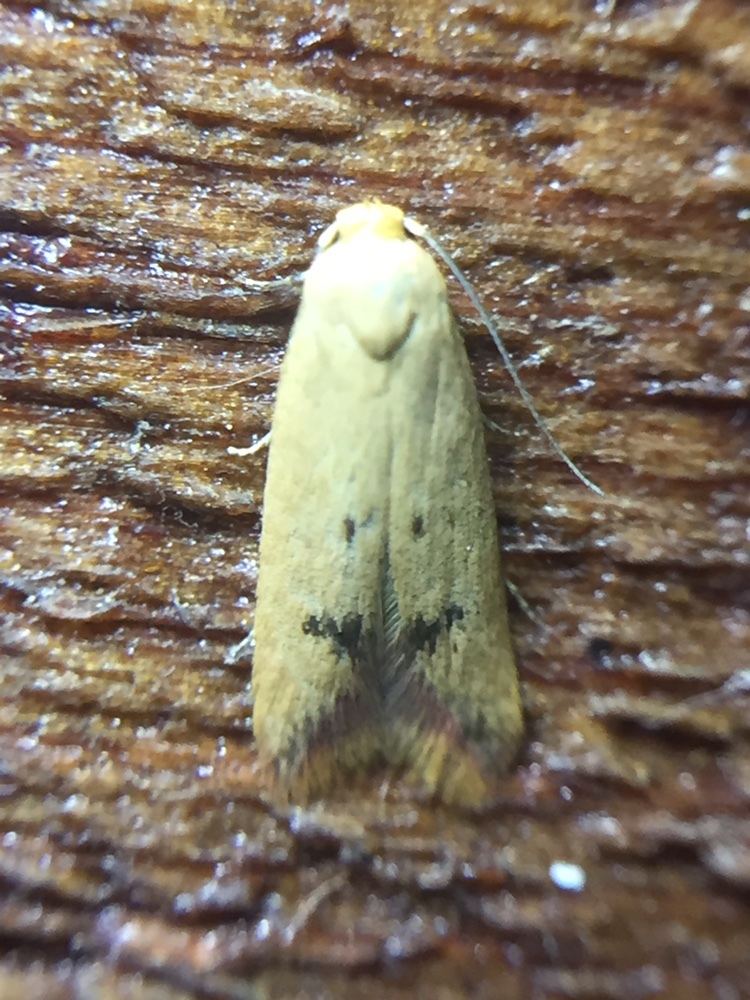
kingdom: Animalia
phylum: Arthropoda
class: Insecta
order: Lepidoptera
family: Oecophoridae
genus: Tachystola
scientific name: Tachystola hemisema
